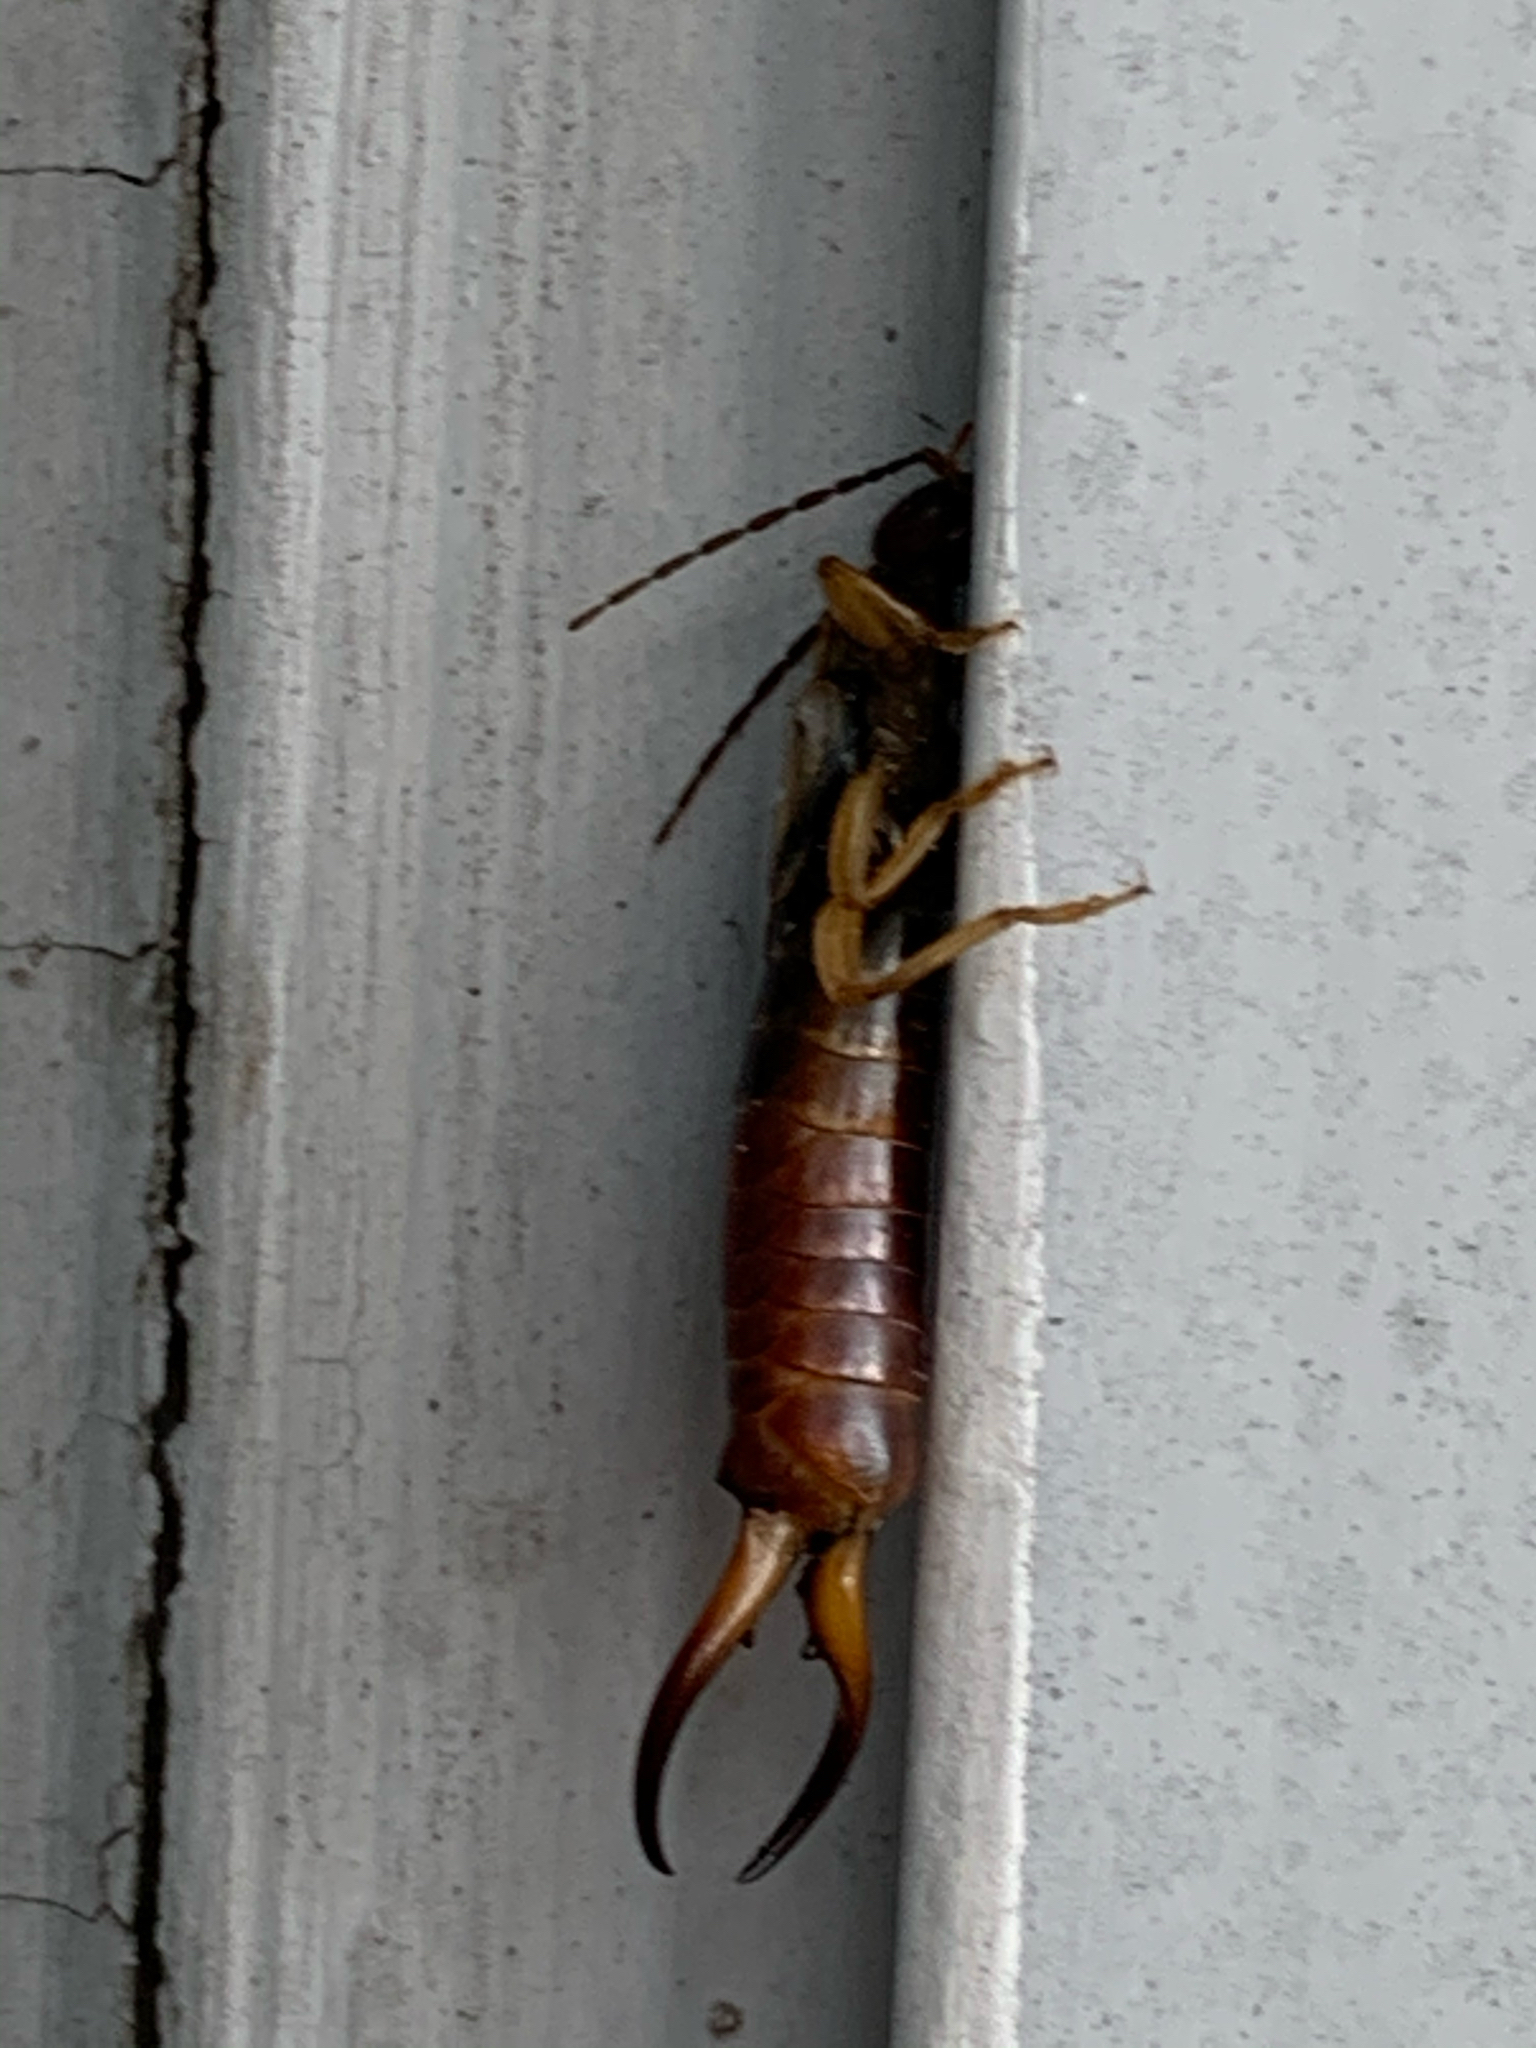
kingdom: Animalia
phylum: Arthropoda
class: Insecta
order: Dermaptera
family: Forficulidae
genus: Forficula
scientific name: Forficula
